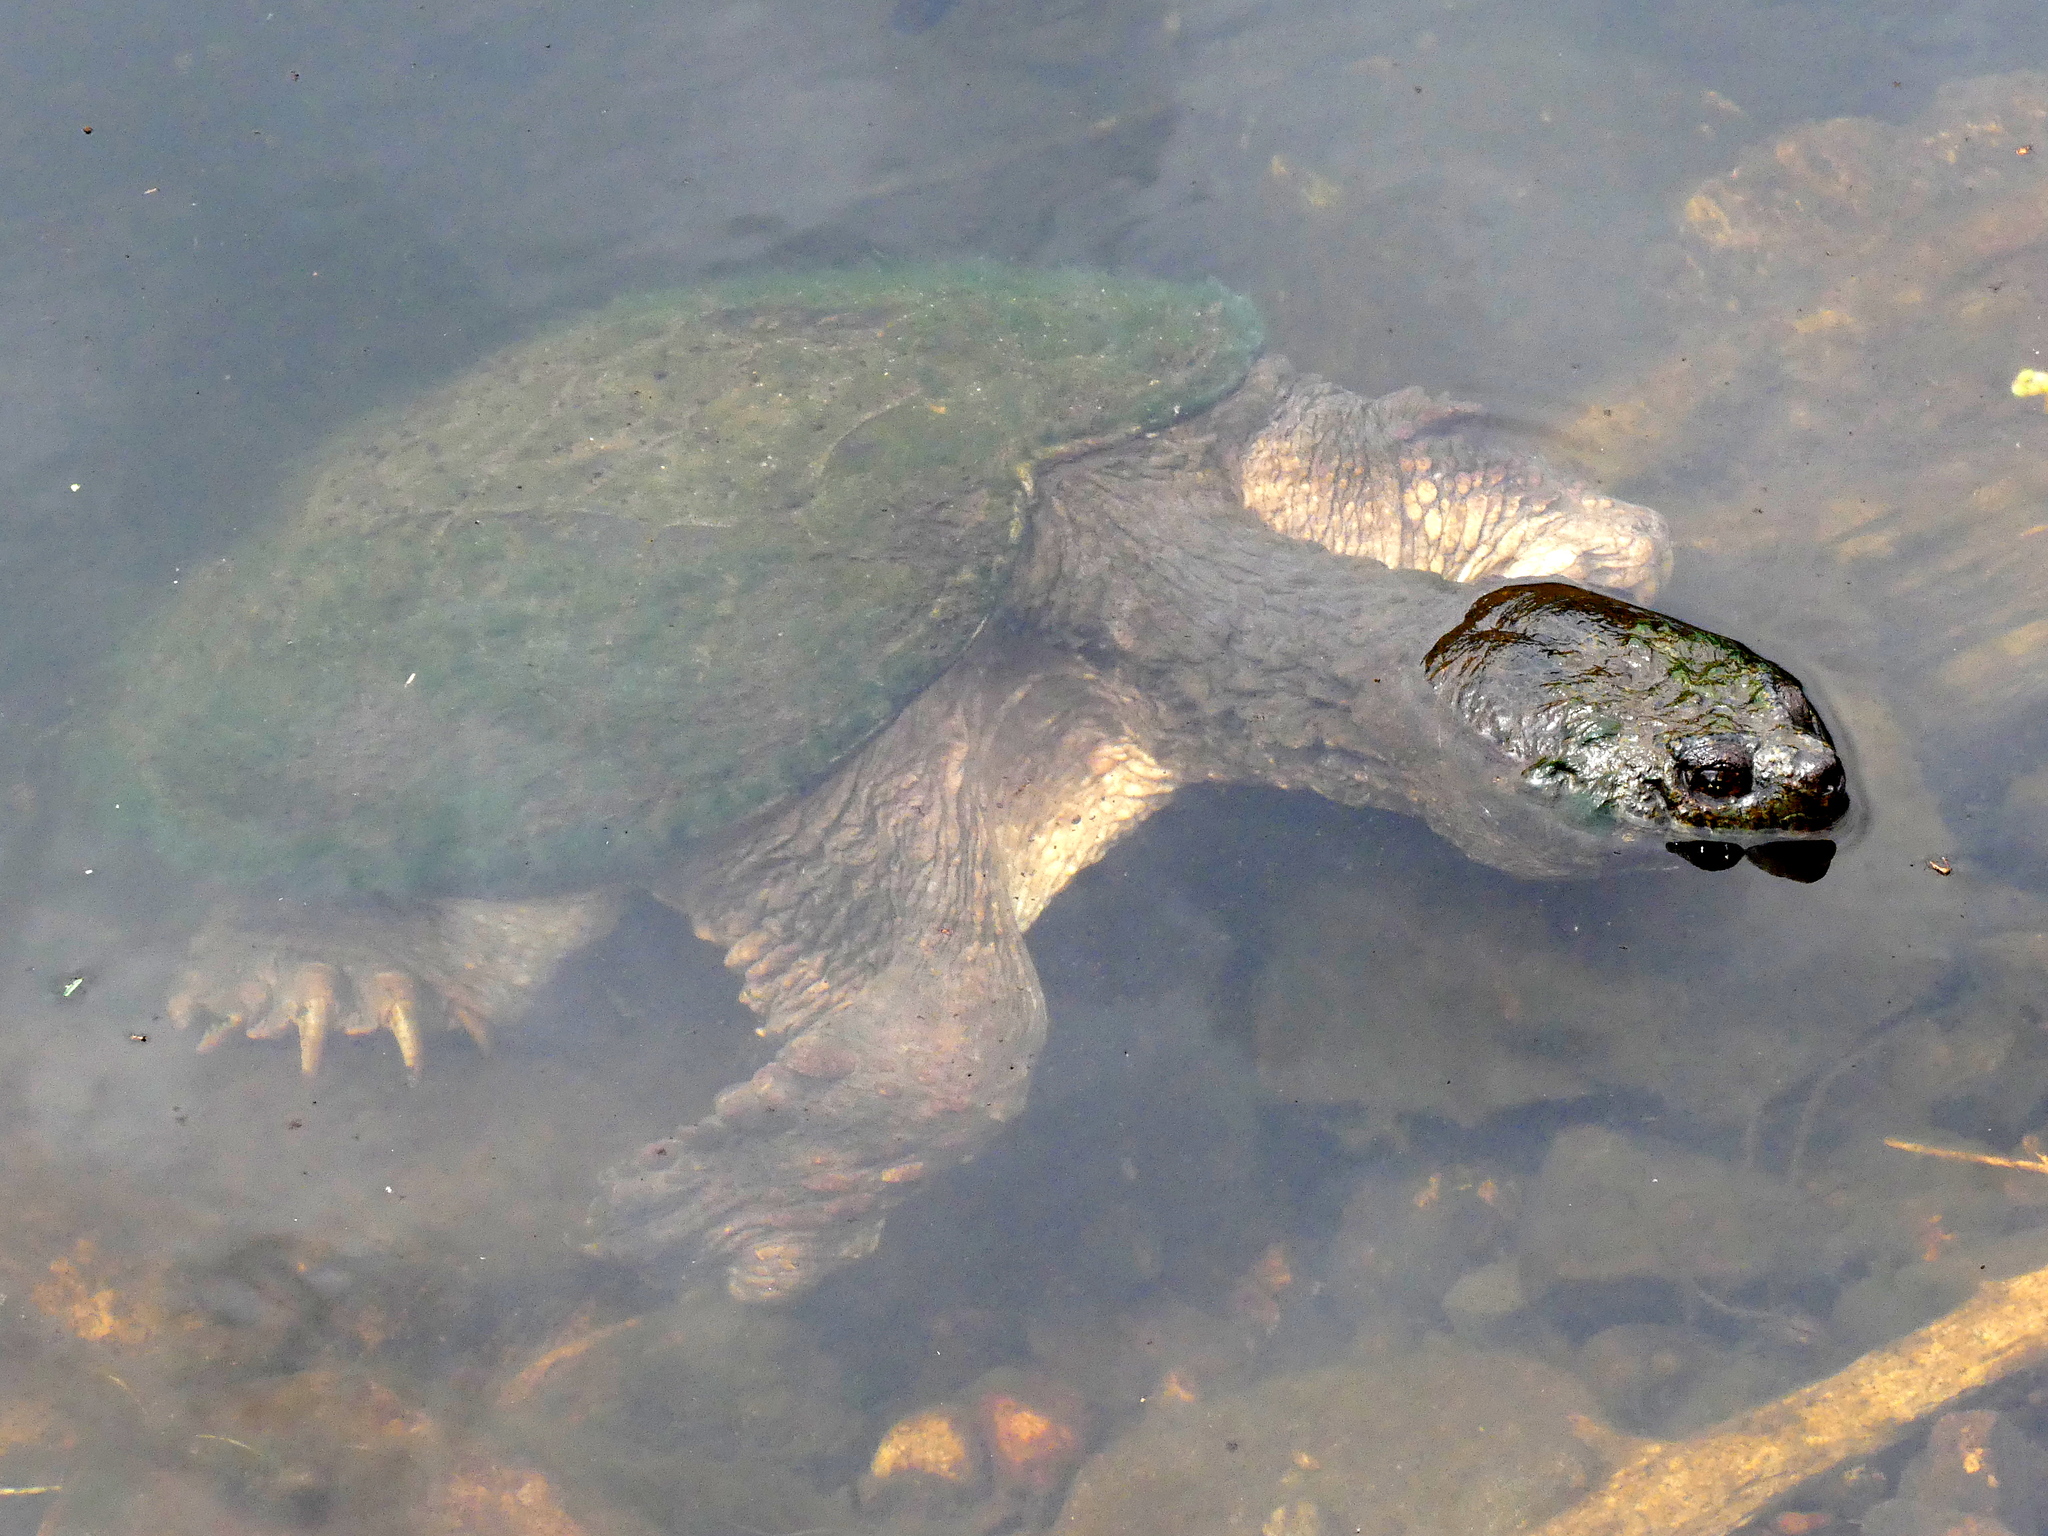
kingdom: Animalia
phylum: Chordata
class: Testudines
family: Chelydridae
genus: Chelydra
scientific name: Chelydra serpentina
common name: Common snapping turtle
